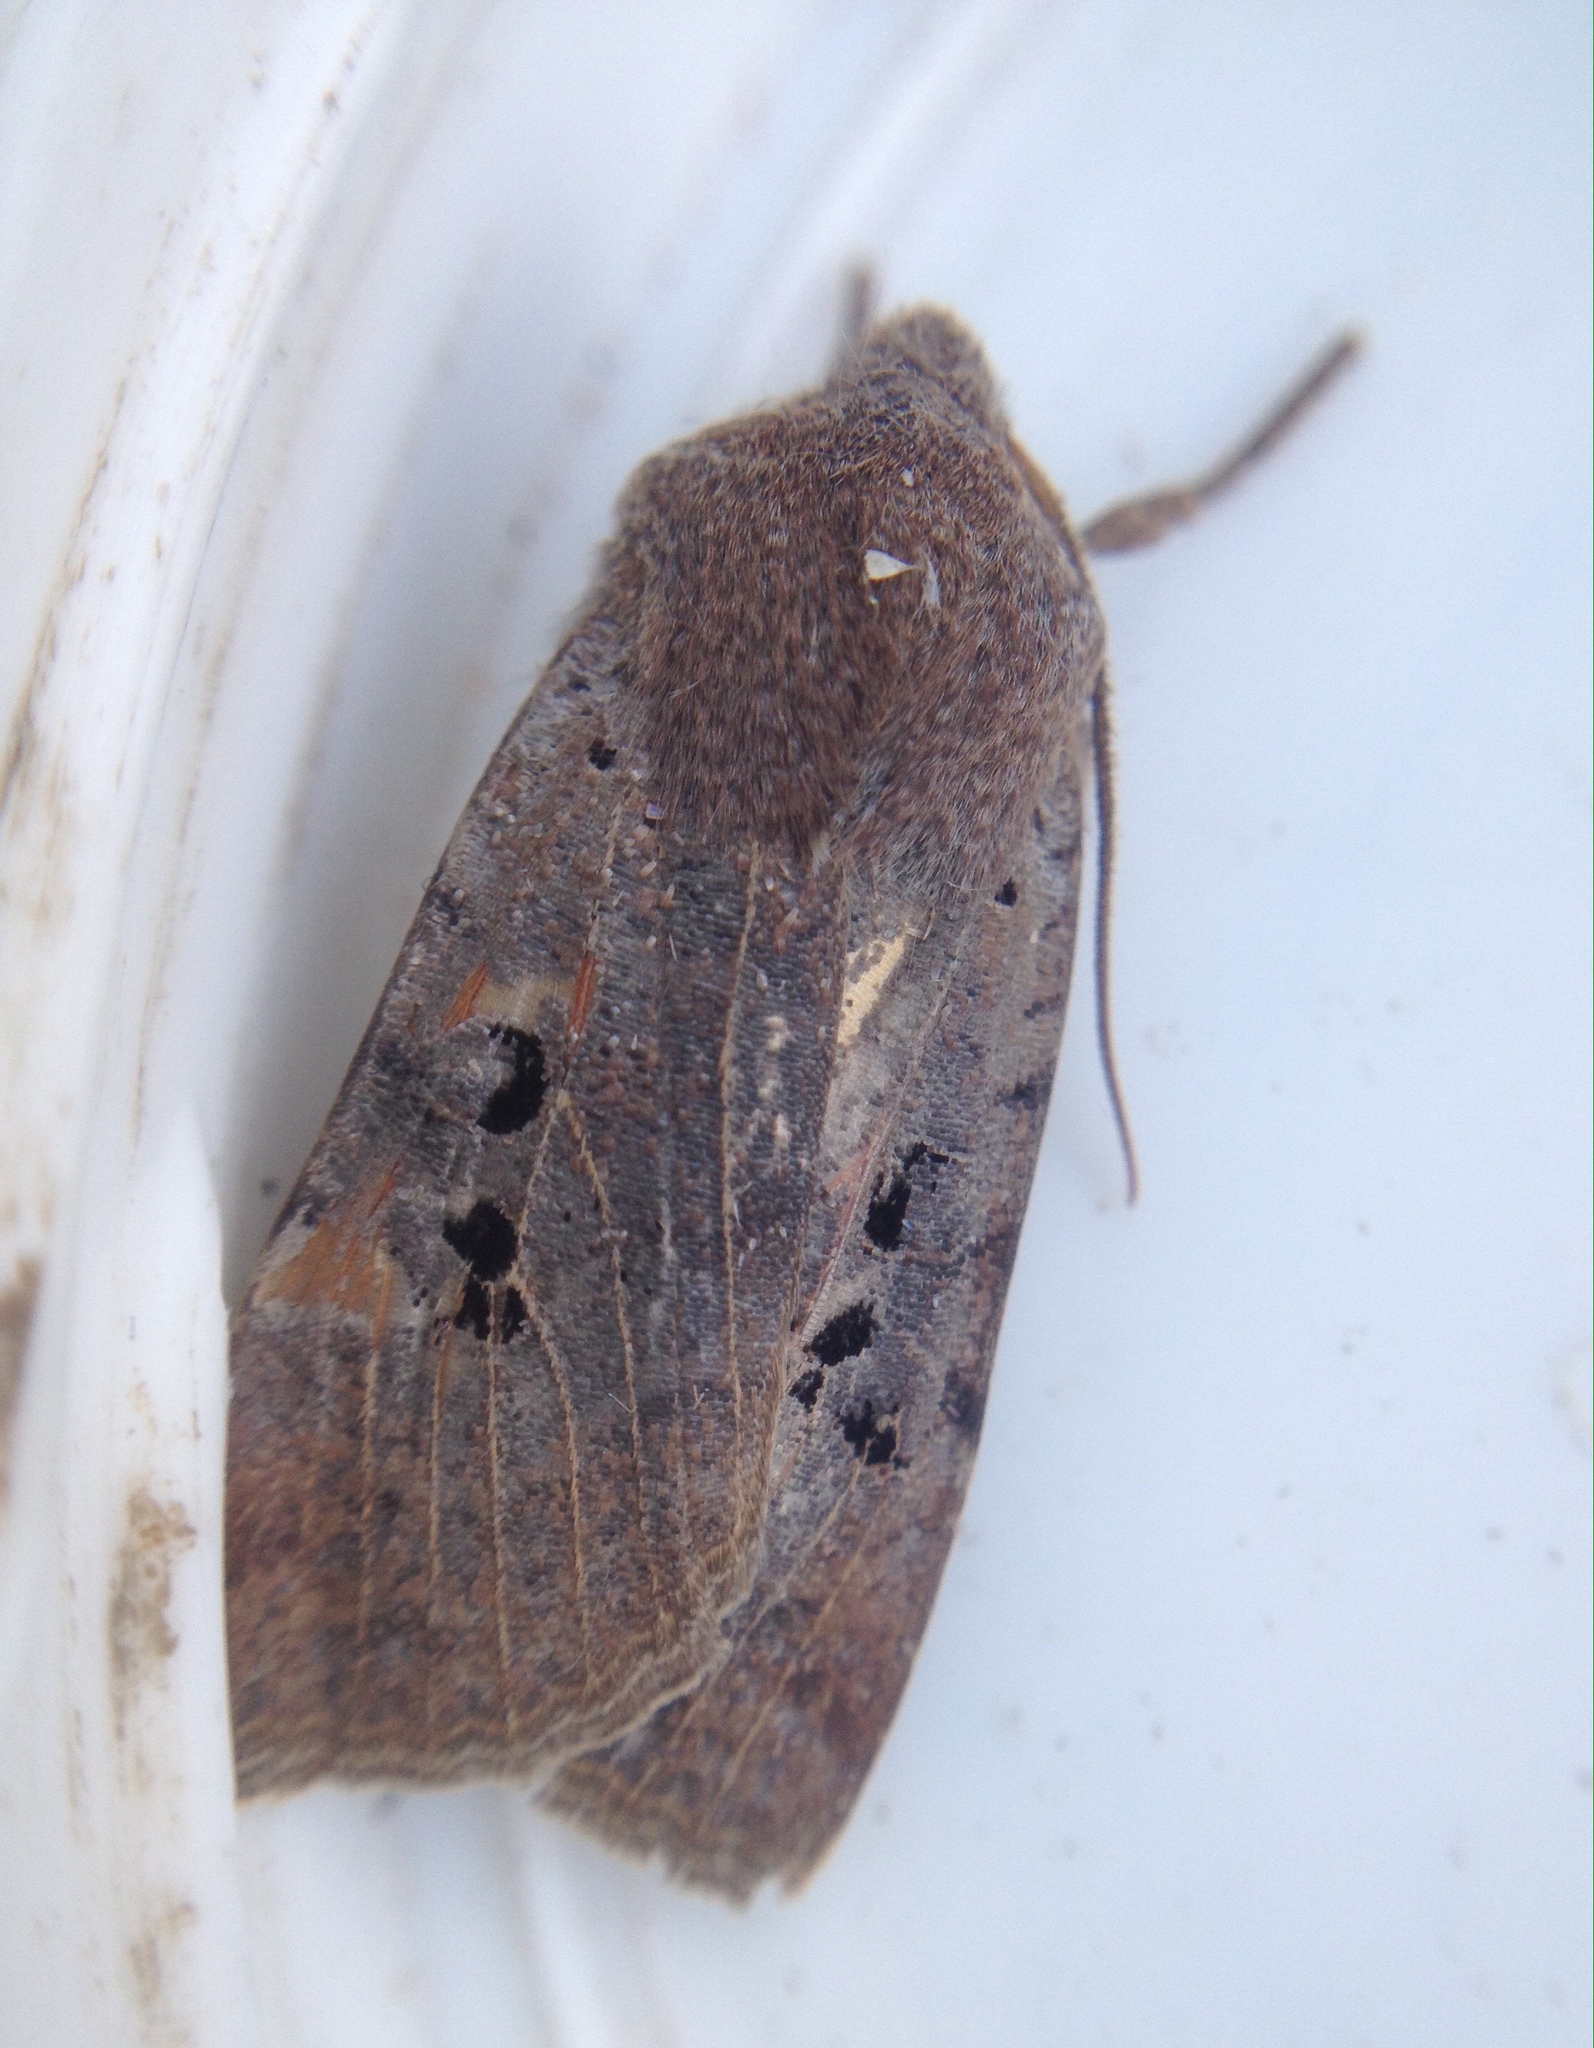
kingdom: Animalia
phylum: Arthropoda
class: Insecta
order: Lepidoptera
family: Noctuidae
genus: Conistra
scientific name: Conistra rubiginosa
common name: Black-spotted chestnut
